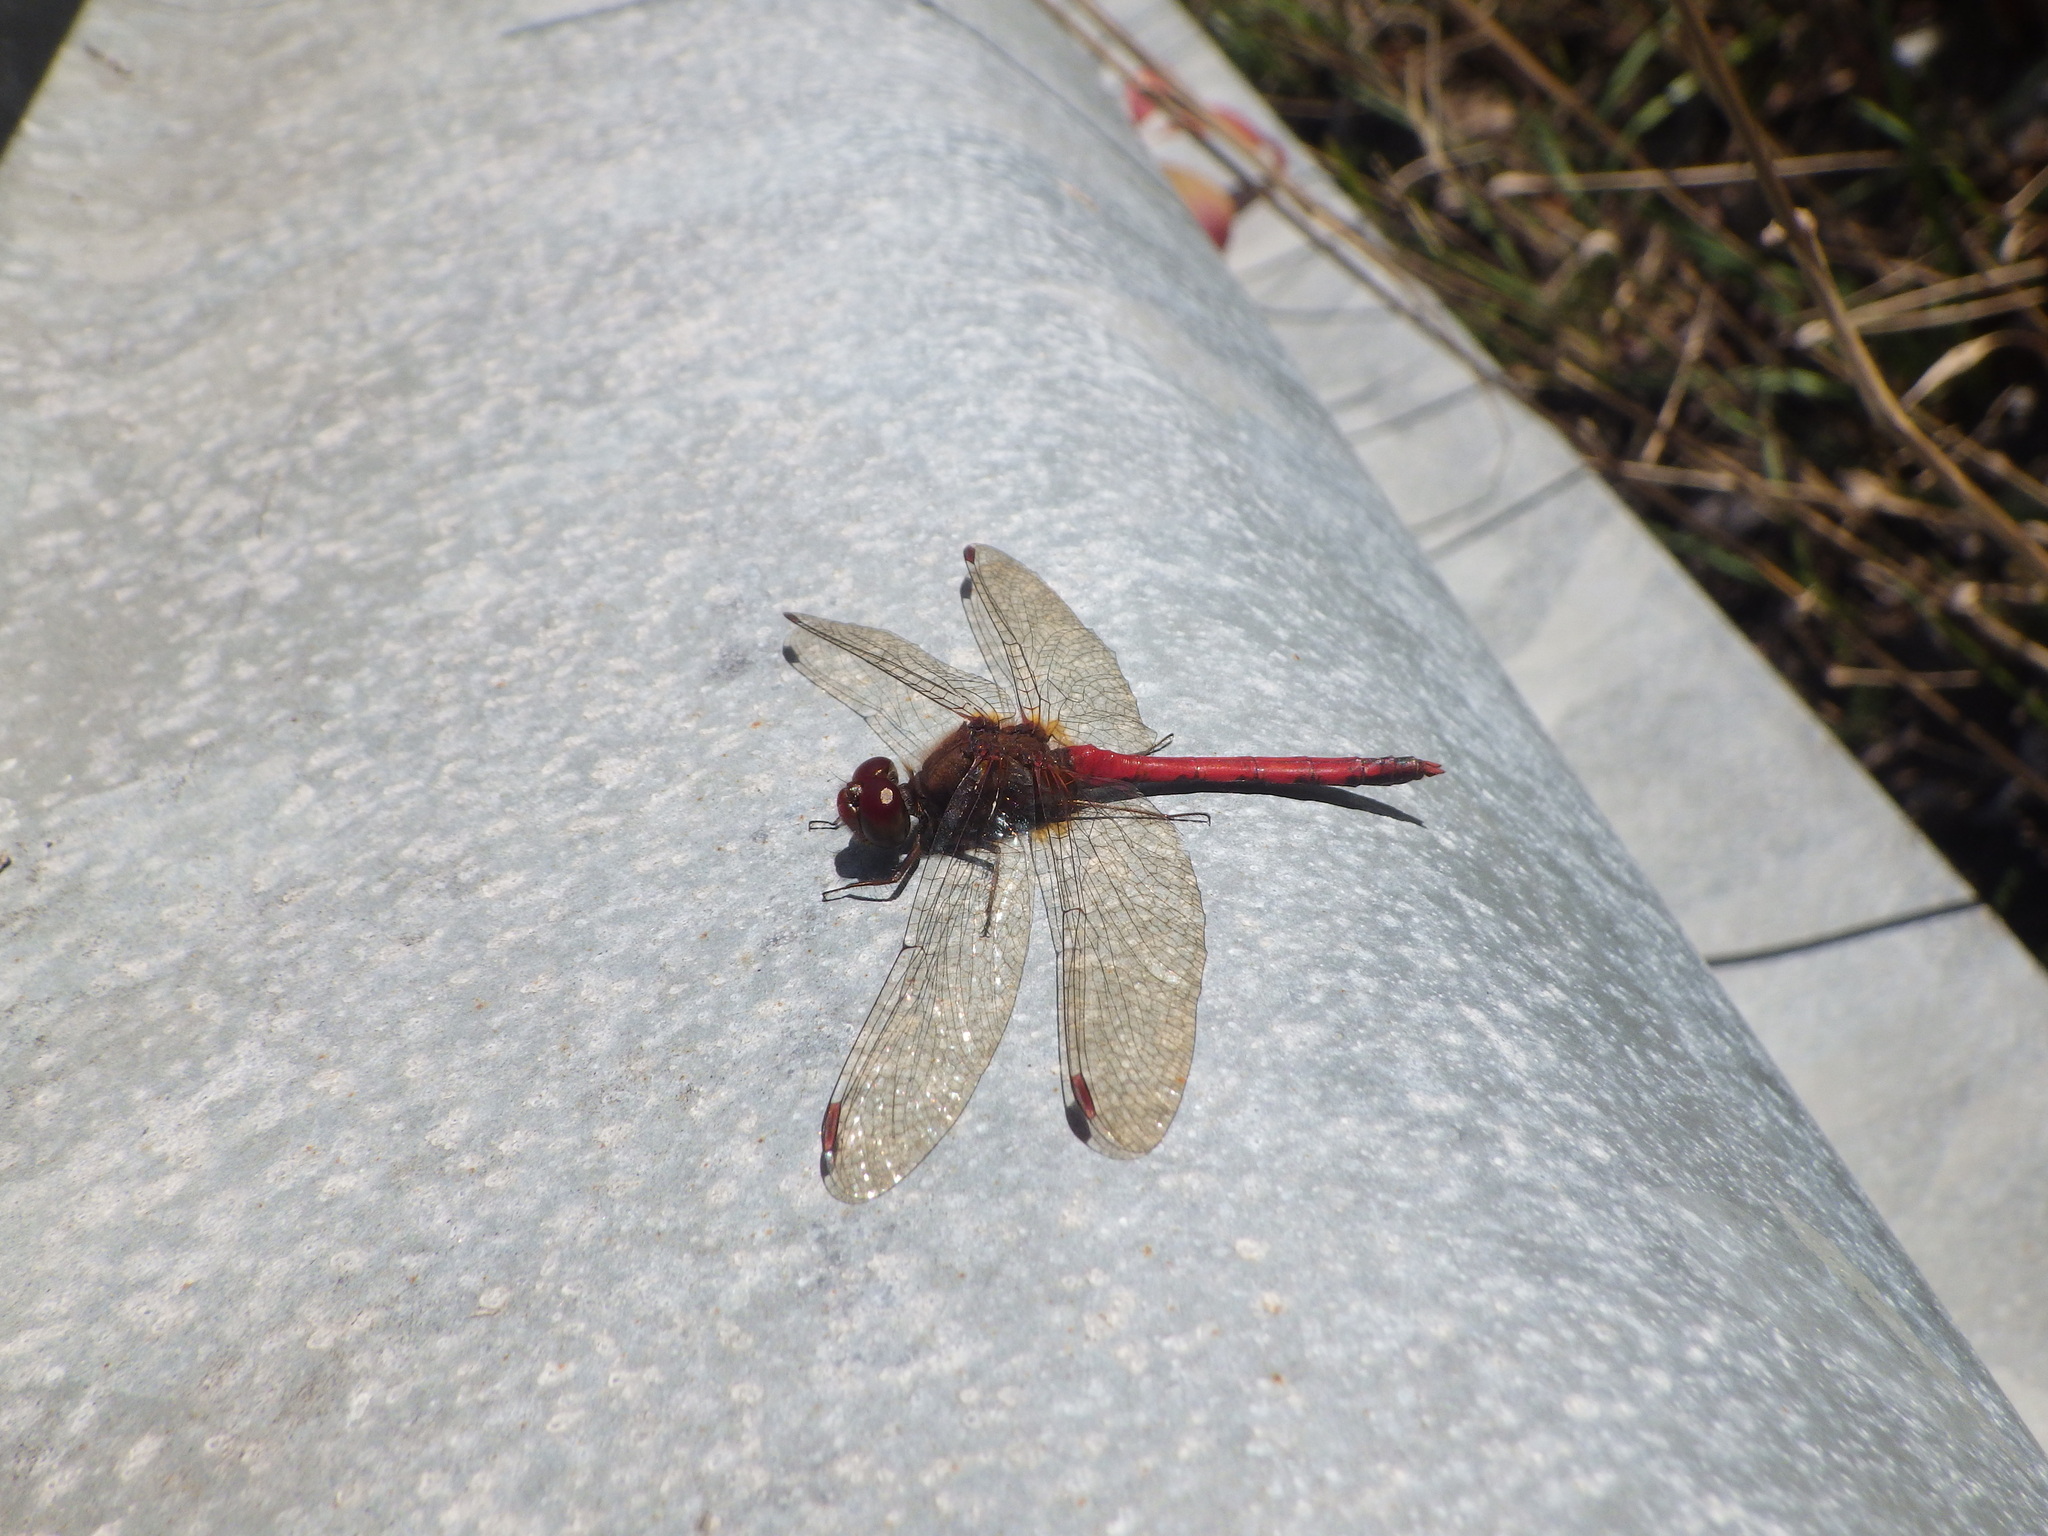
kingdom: Animalia
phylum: Arthropoda
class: Insecta
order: Odonata
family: Libellulidae
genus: Sympetrum
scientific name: Sympetrum vicinum
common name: Autumn meadowhawk
